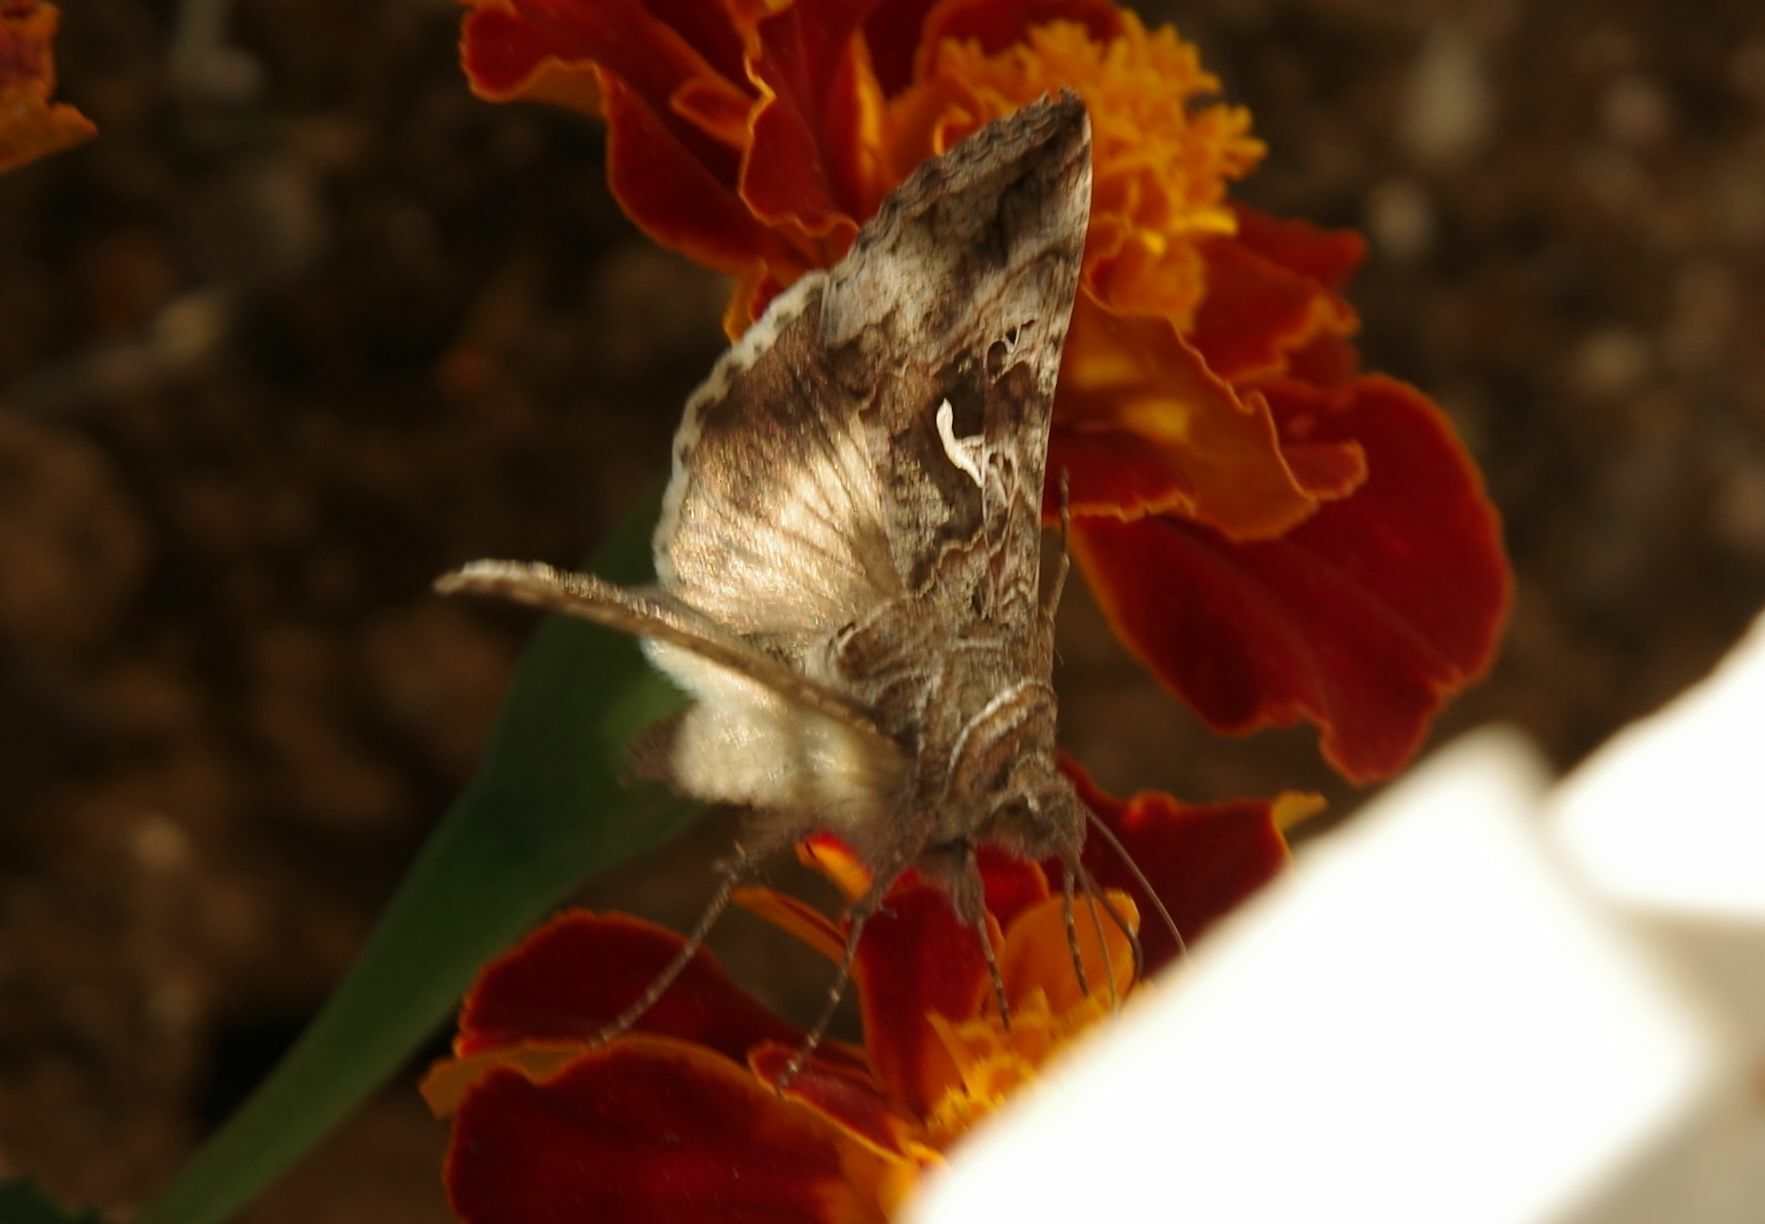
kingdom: Animalia
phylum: Arthropoda
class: Insecta
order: Lepidoptera
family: Noctuidae
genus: Autographa
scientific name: Autographa gamma
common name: Silver y
